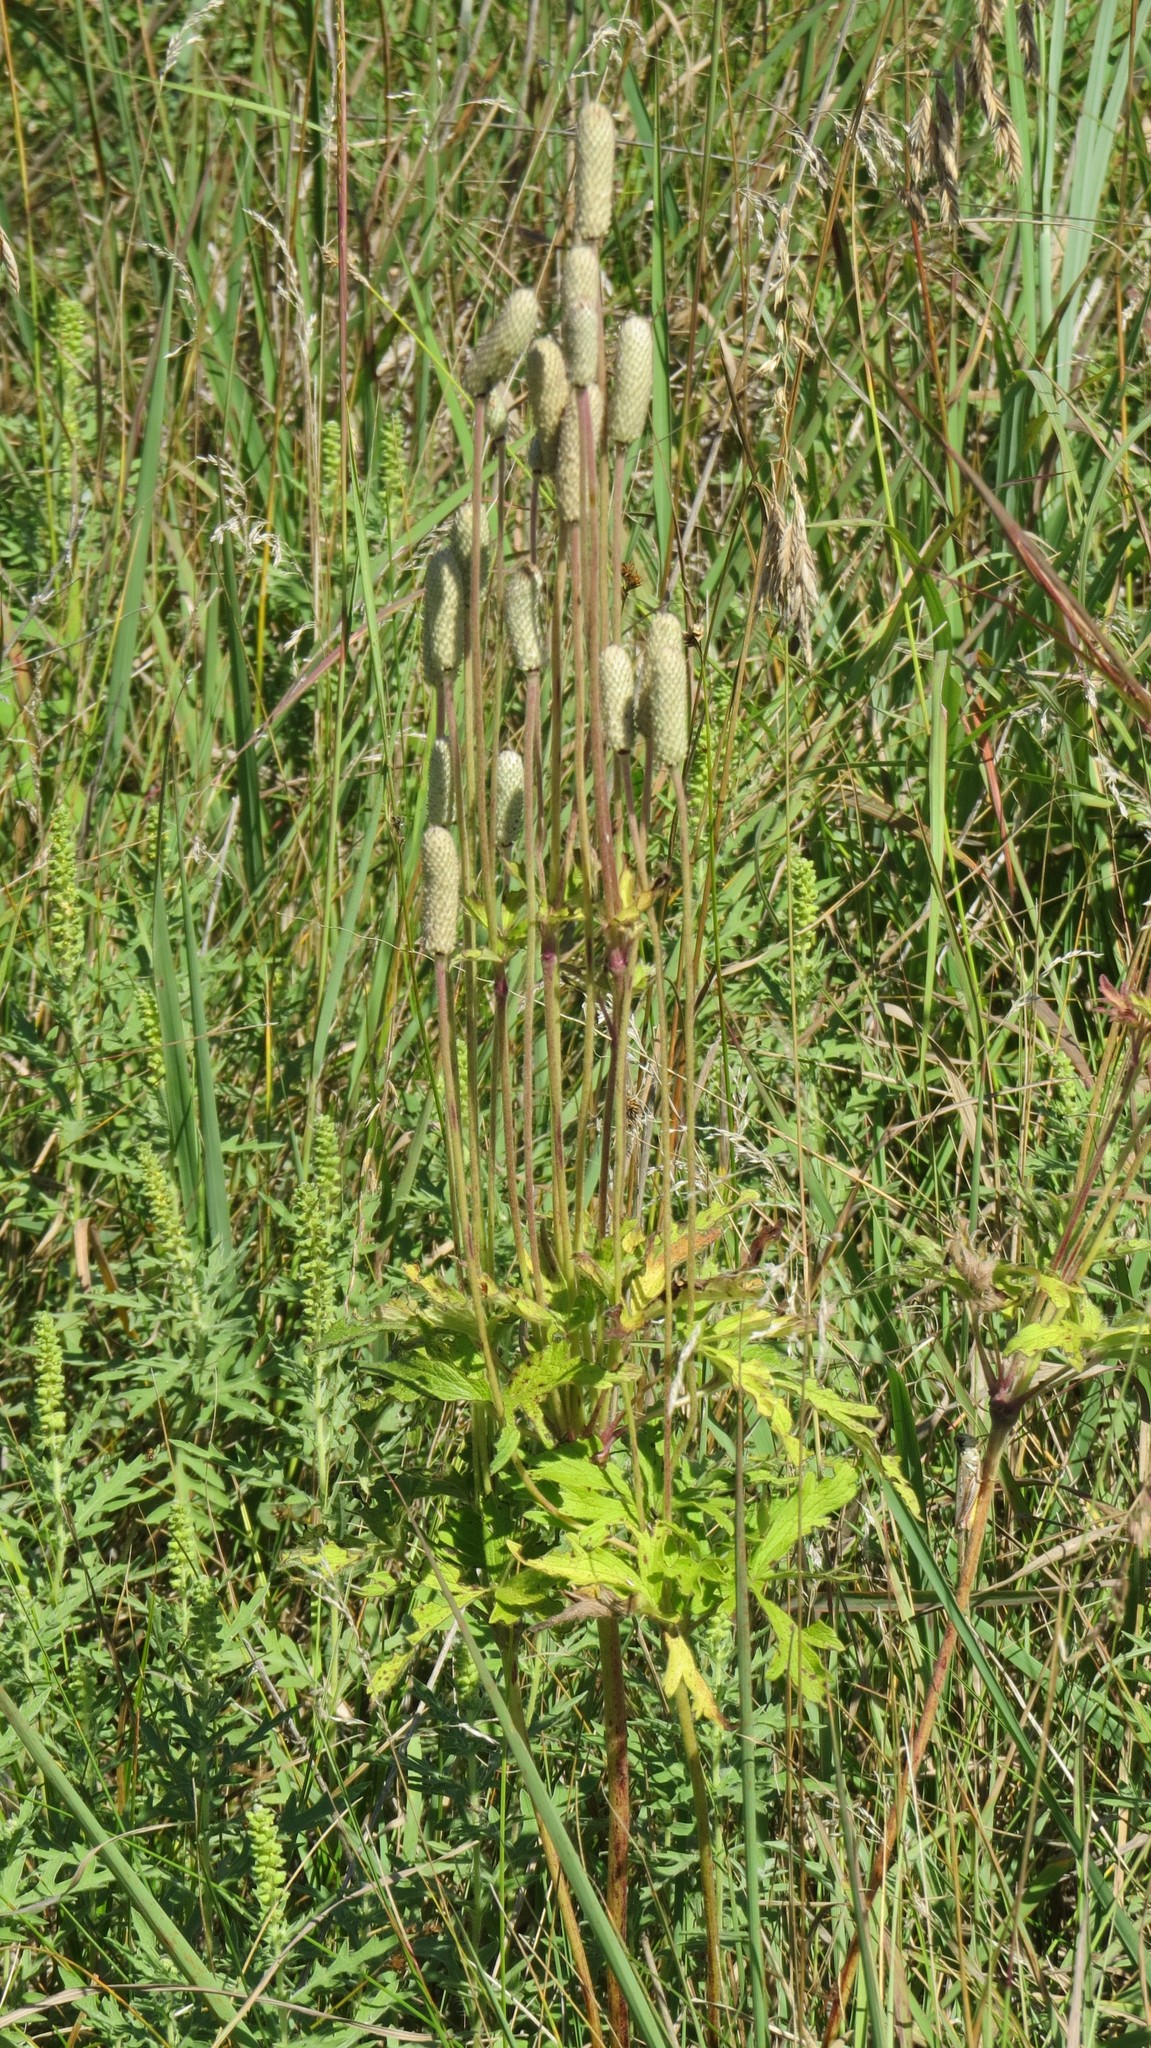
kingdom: Plantae
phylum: Tracheophyta
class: Magnoliopsida
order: Ranunculales
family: Ranunculaceae
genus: Anemone
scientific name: Anemone cylindrica
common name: Candle anemone
